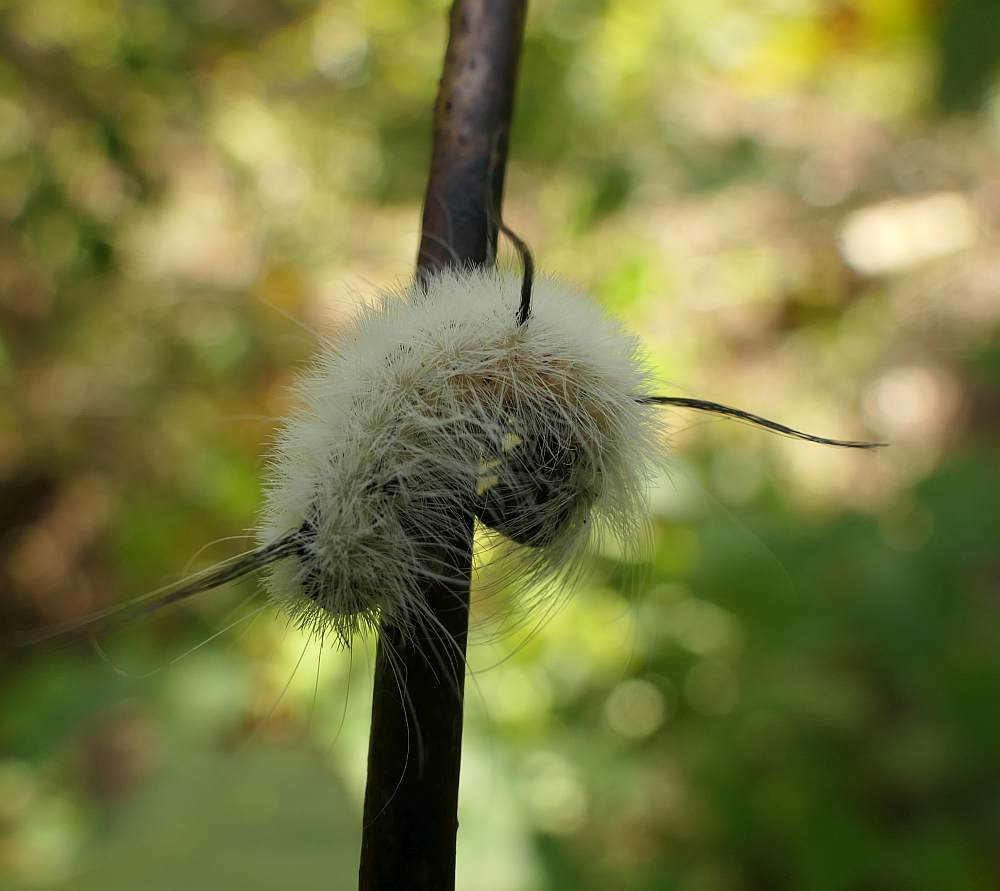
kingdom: Animalia
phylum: Arthropoda
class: Insecta
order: Lepidoptera
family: Noctuidae
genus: Acronicta
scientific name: Acronicta americana
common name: American dagger
